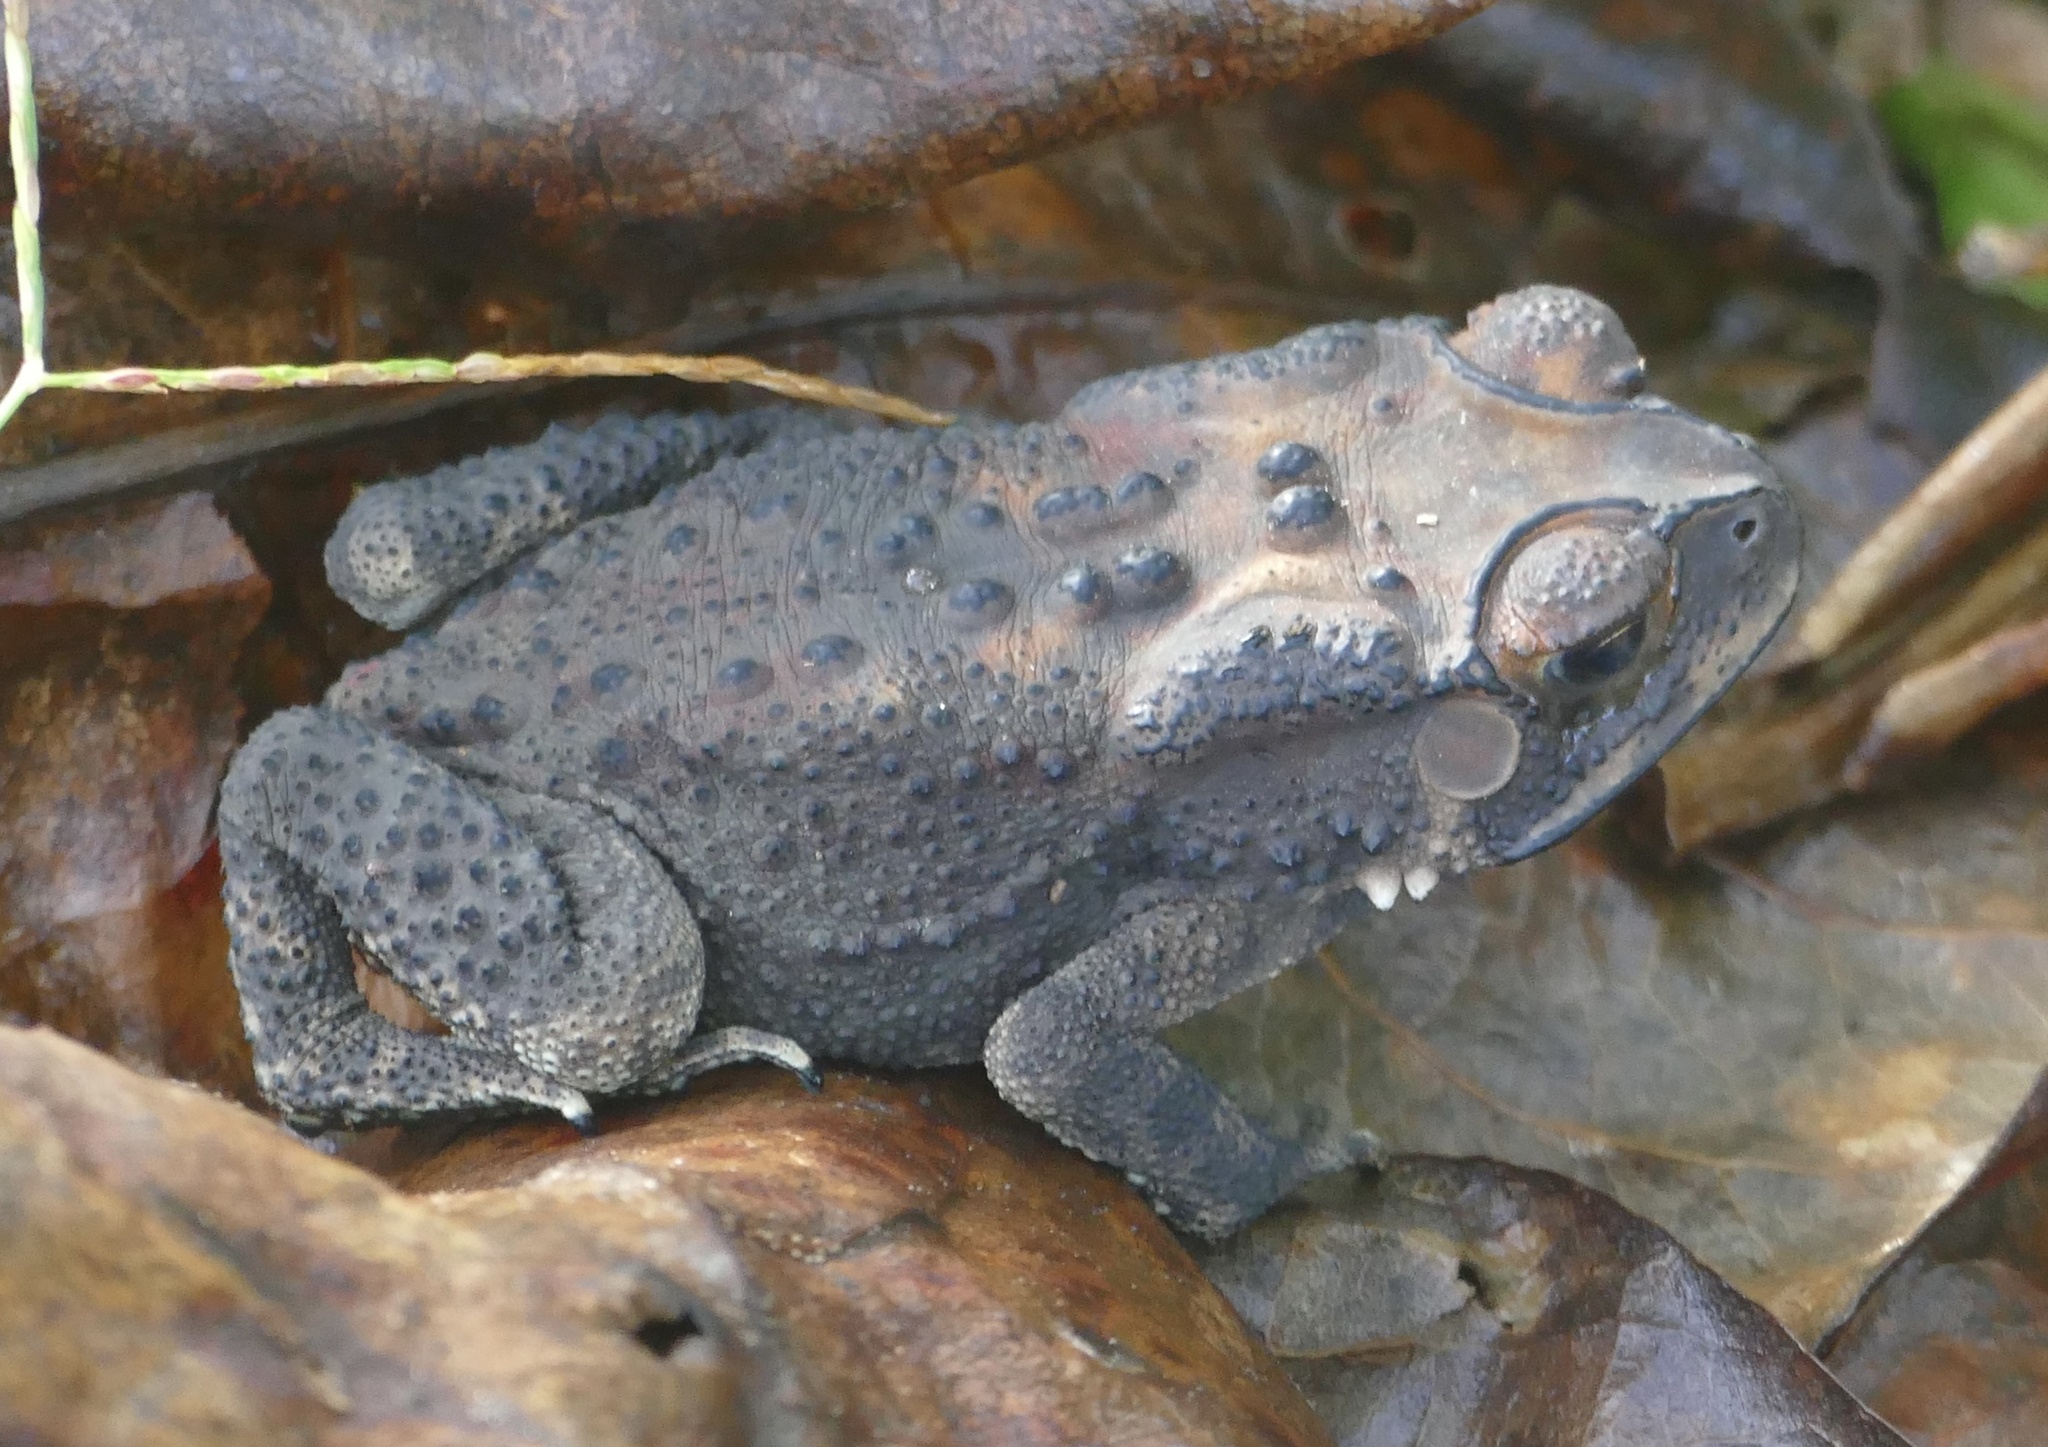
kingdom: Animalia
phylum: Chordata
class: Amphibia
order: Anura
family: Bufonidae
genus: Duttaphrynus
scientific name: Duttaphrynus melanostictus
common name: Common sunda toad
